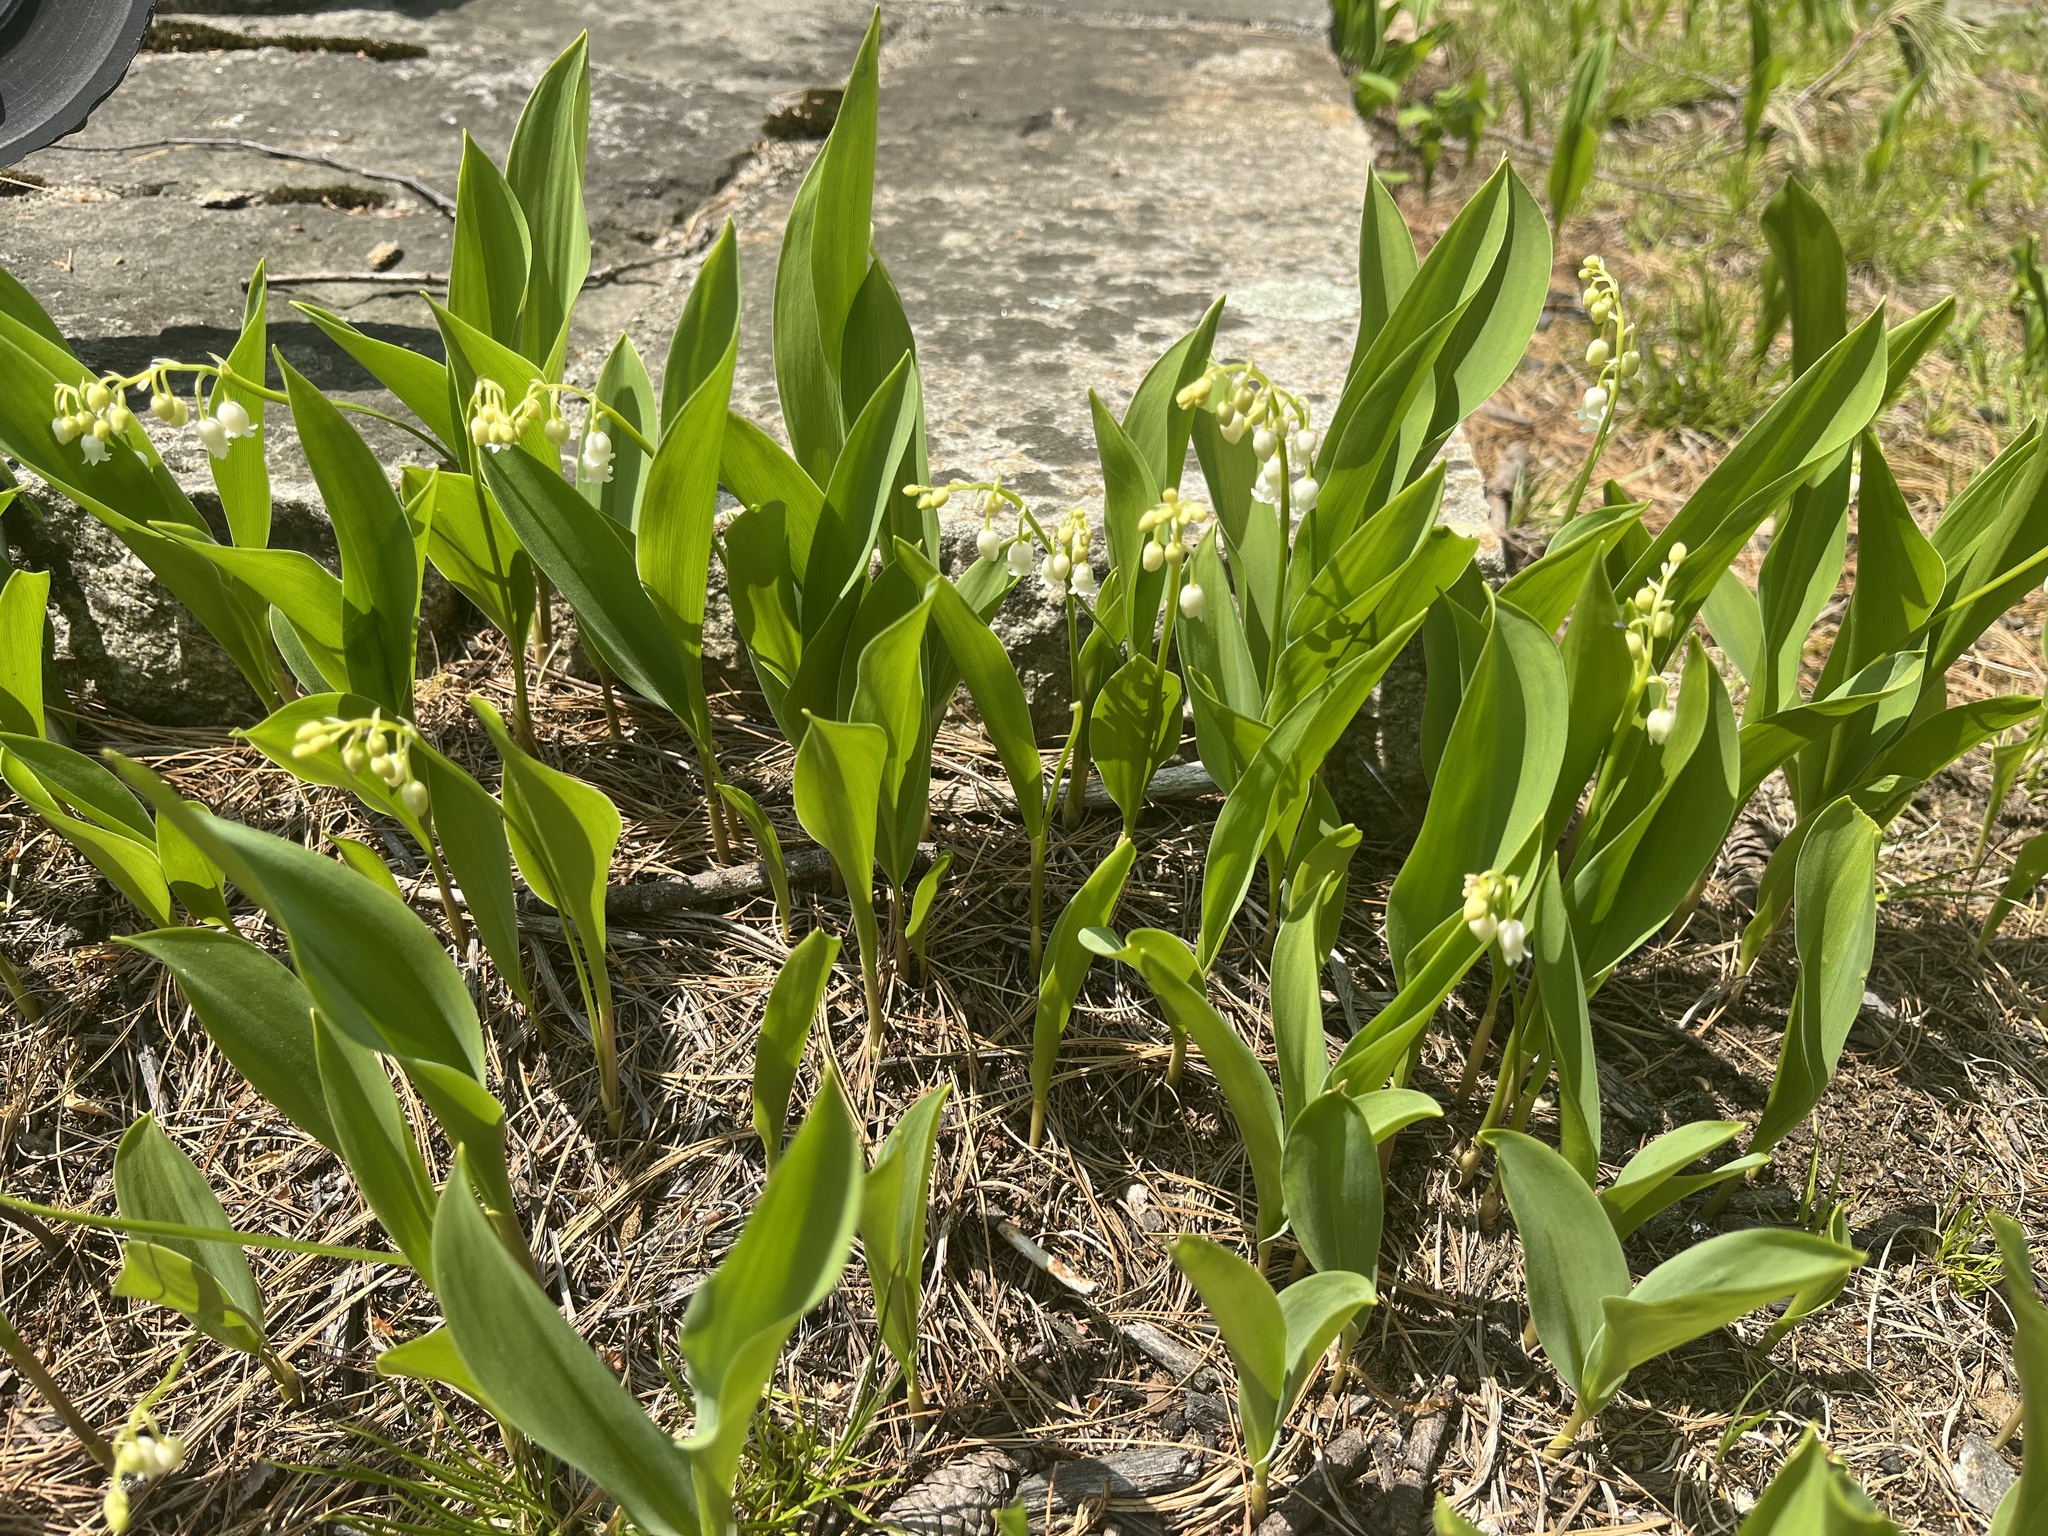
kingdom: Plantae
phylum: Tracheophyta
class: Liliopsida
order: Asparagales
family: Asparagaceae
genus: Convallaria
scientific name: Convallaria majalis
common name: Lily-of-the-valley
